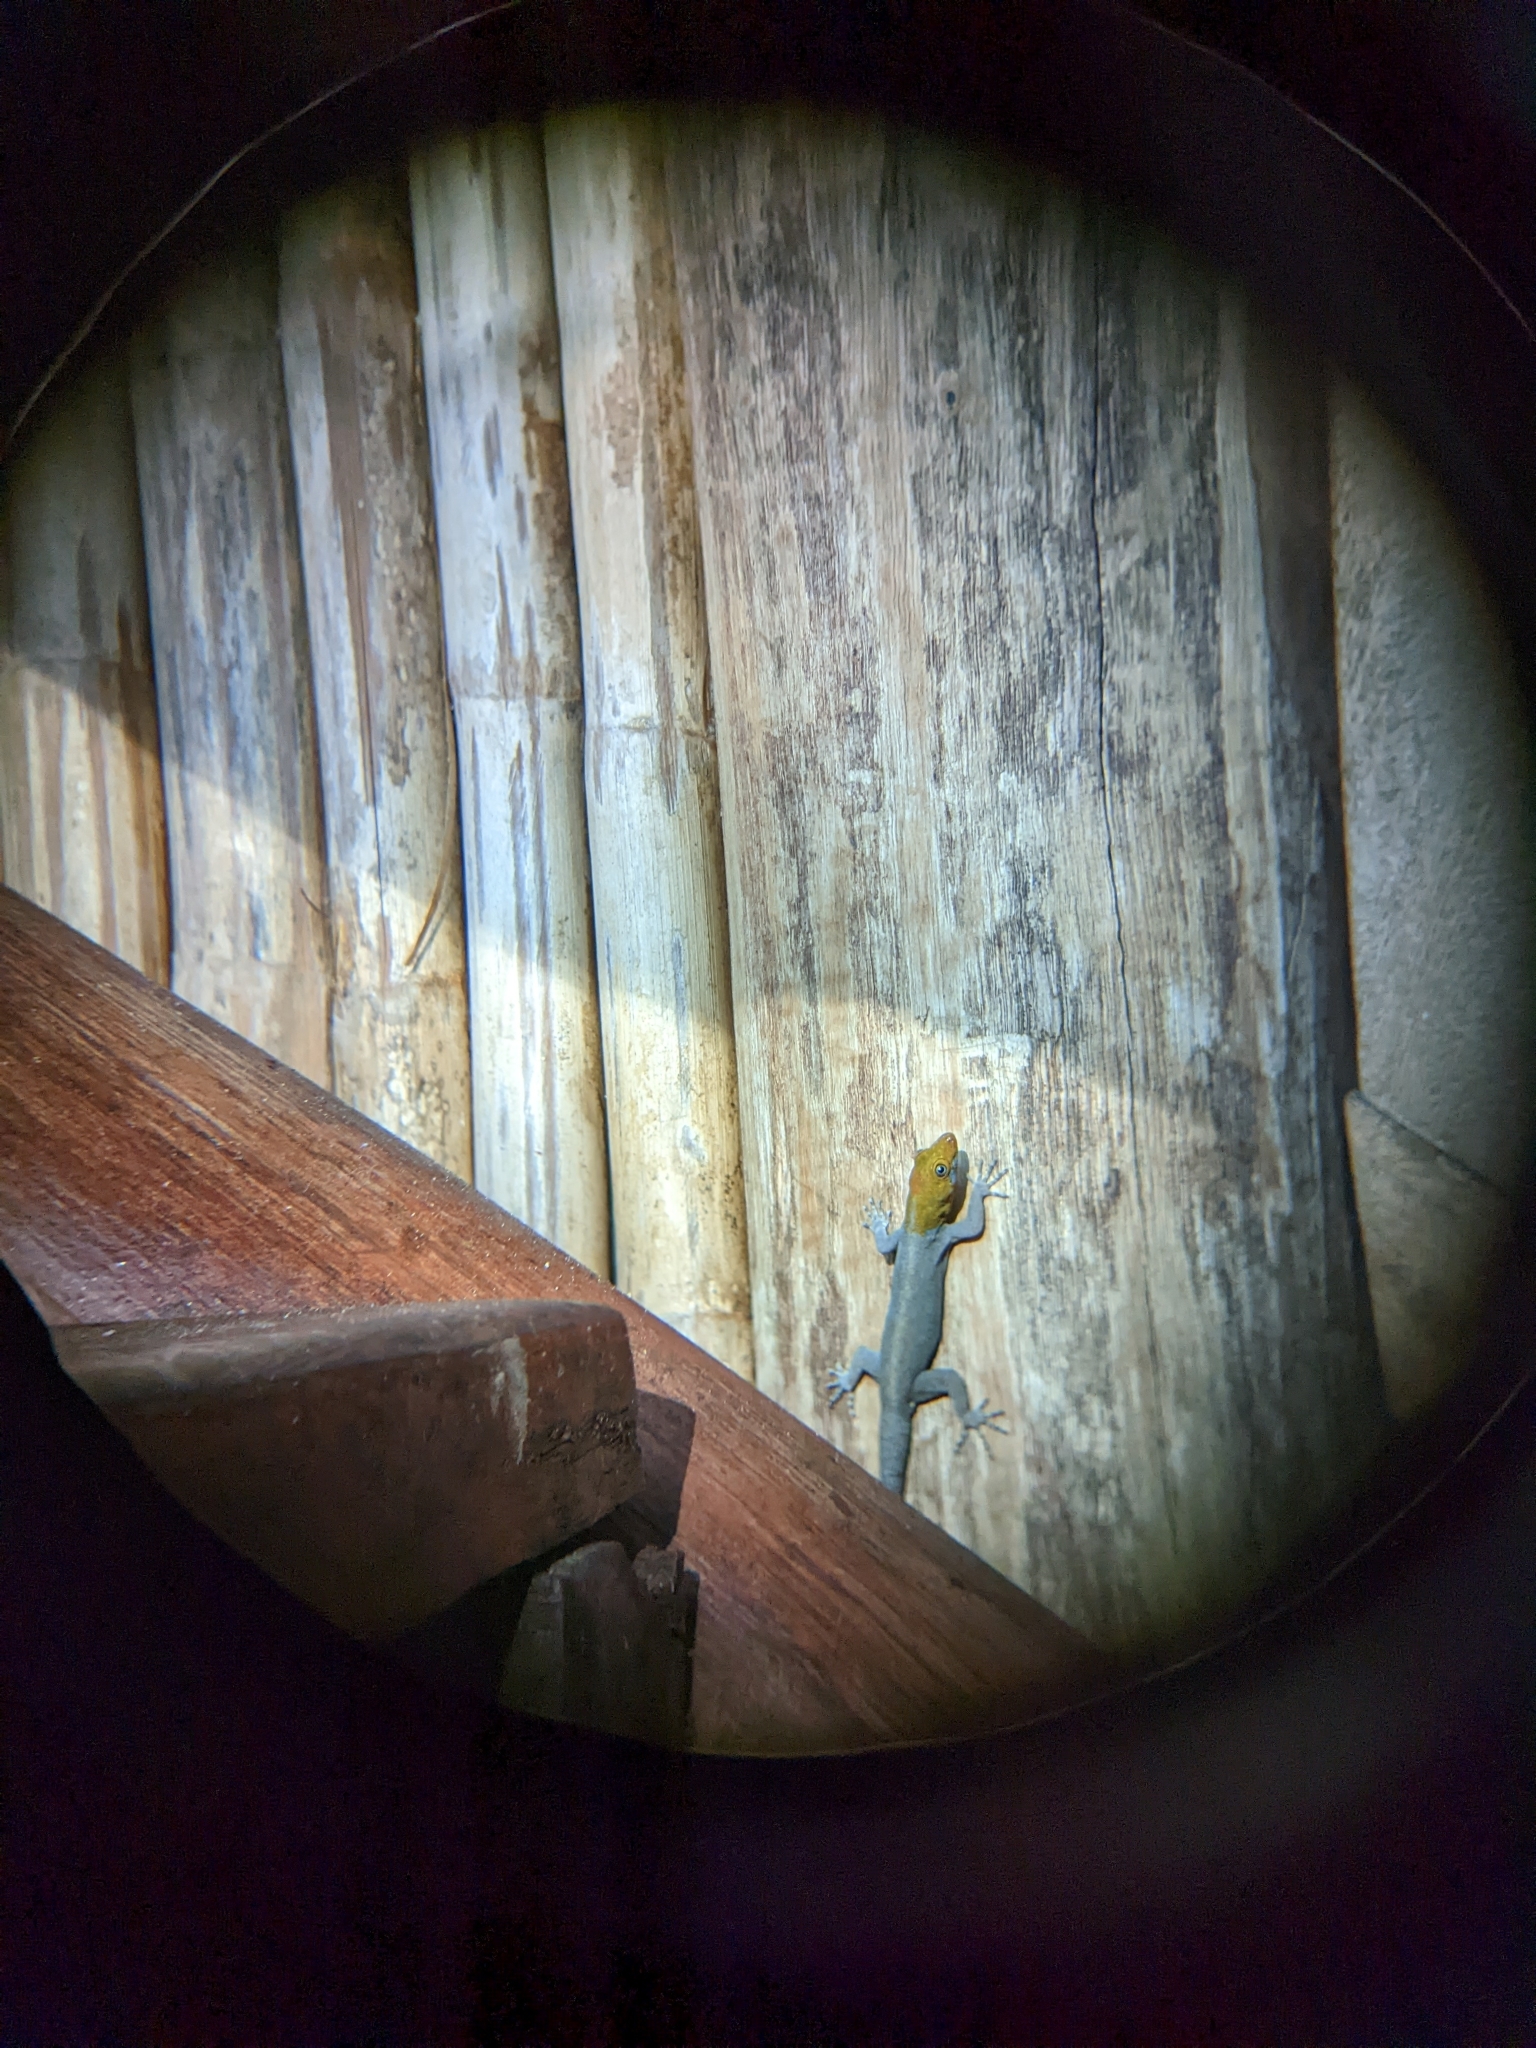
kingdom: Animalia
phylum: Chordata
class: Squamata
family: Sphaerodactylidae
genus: Gonatodes
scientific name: Gonatodes albogularis
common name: Yellow-headed gecko
